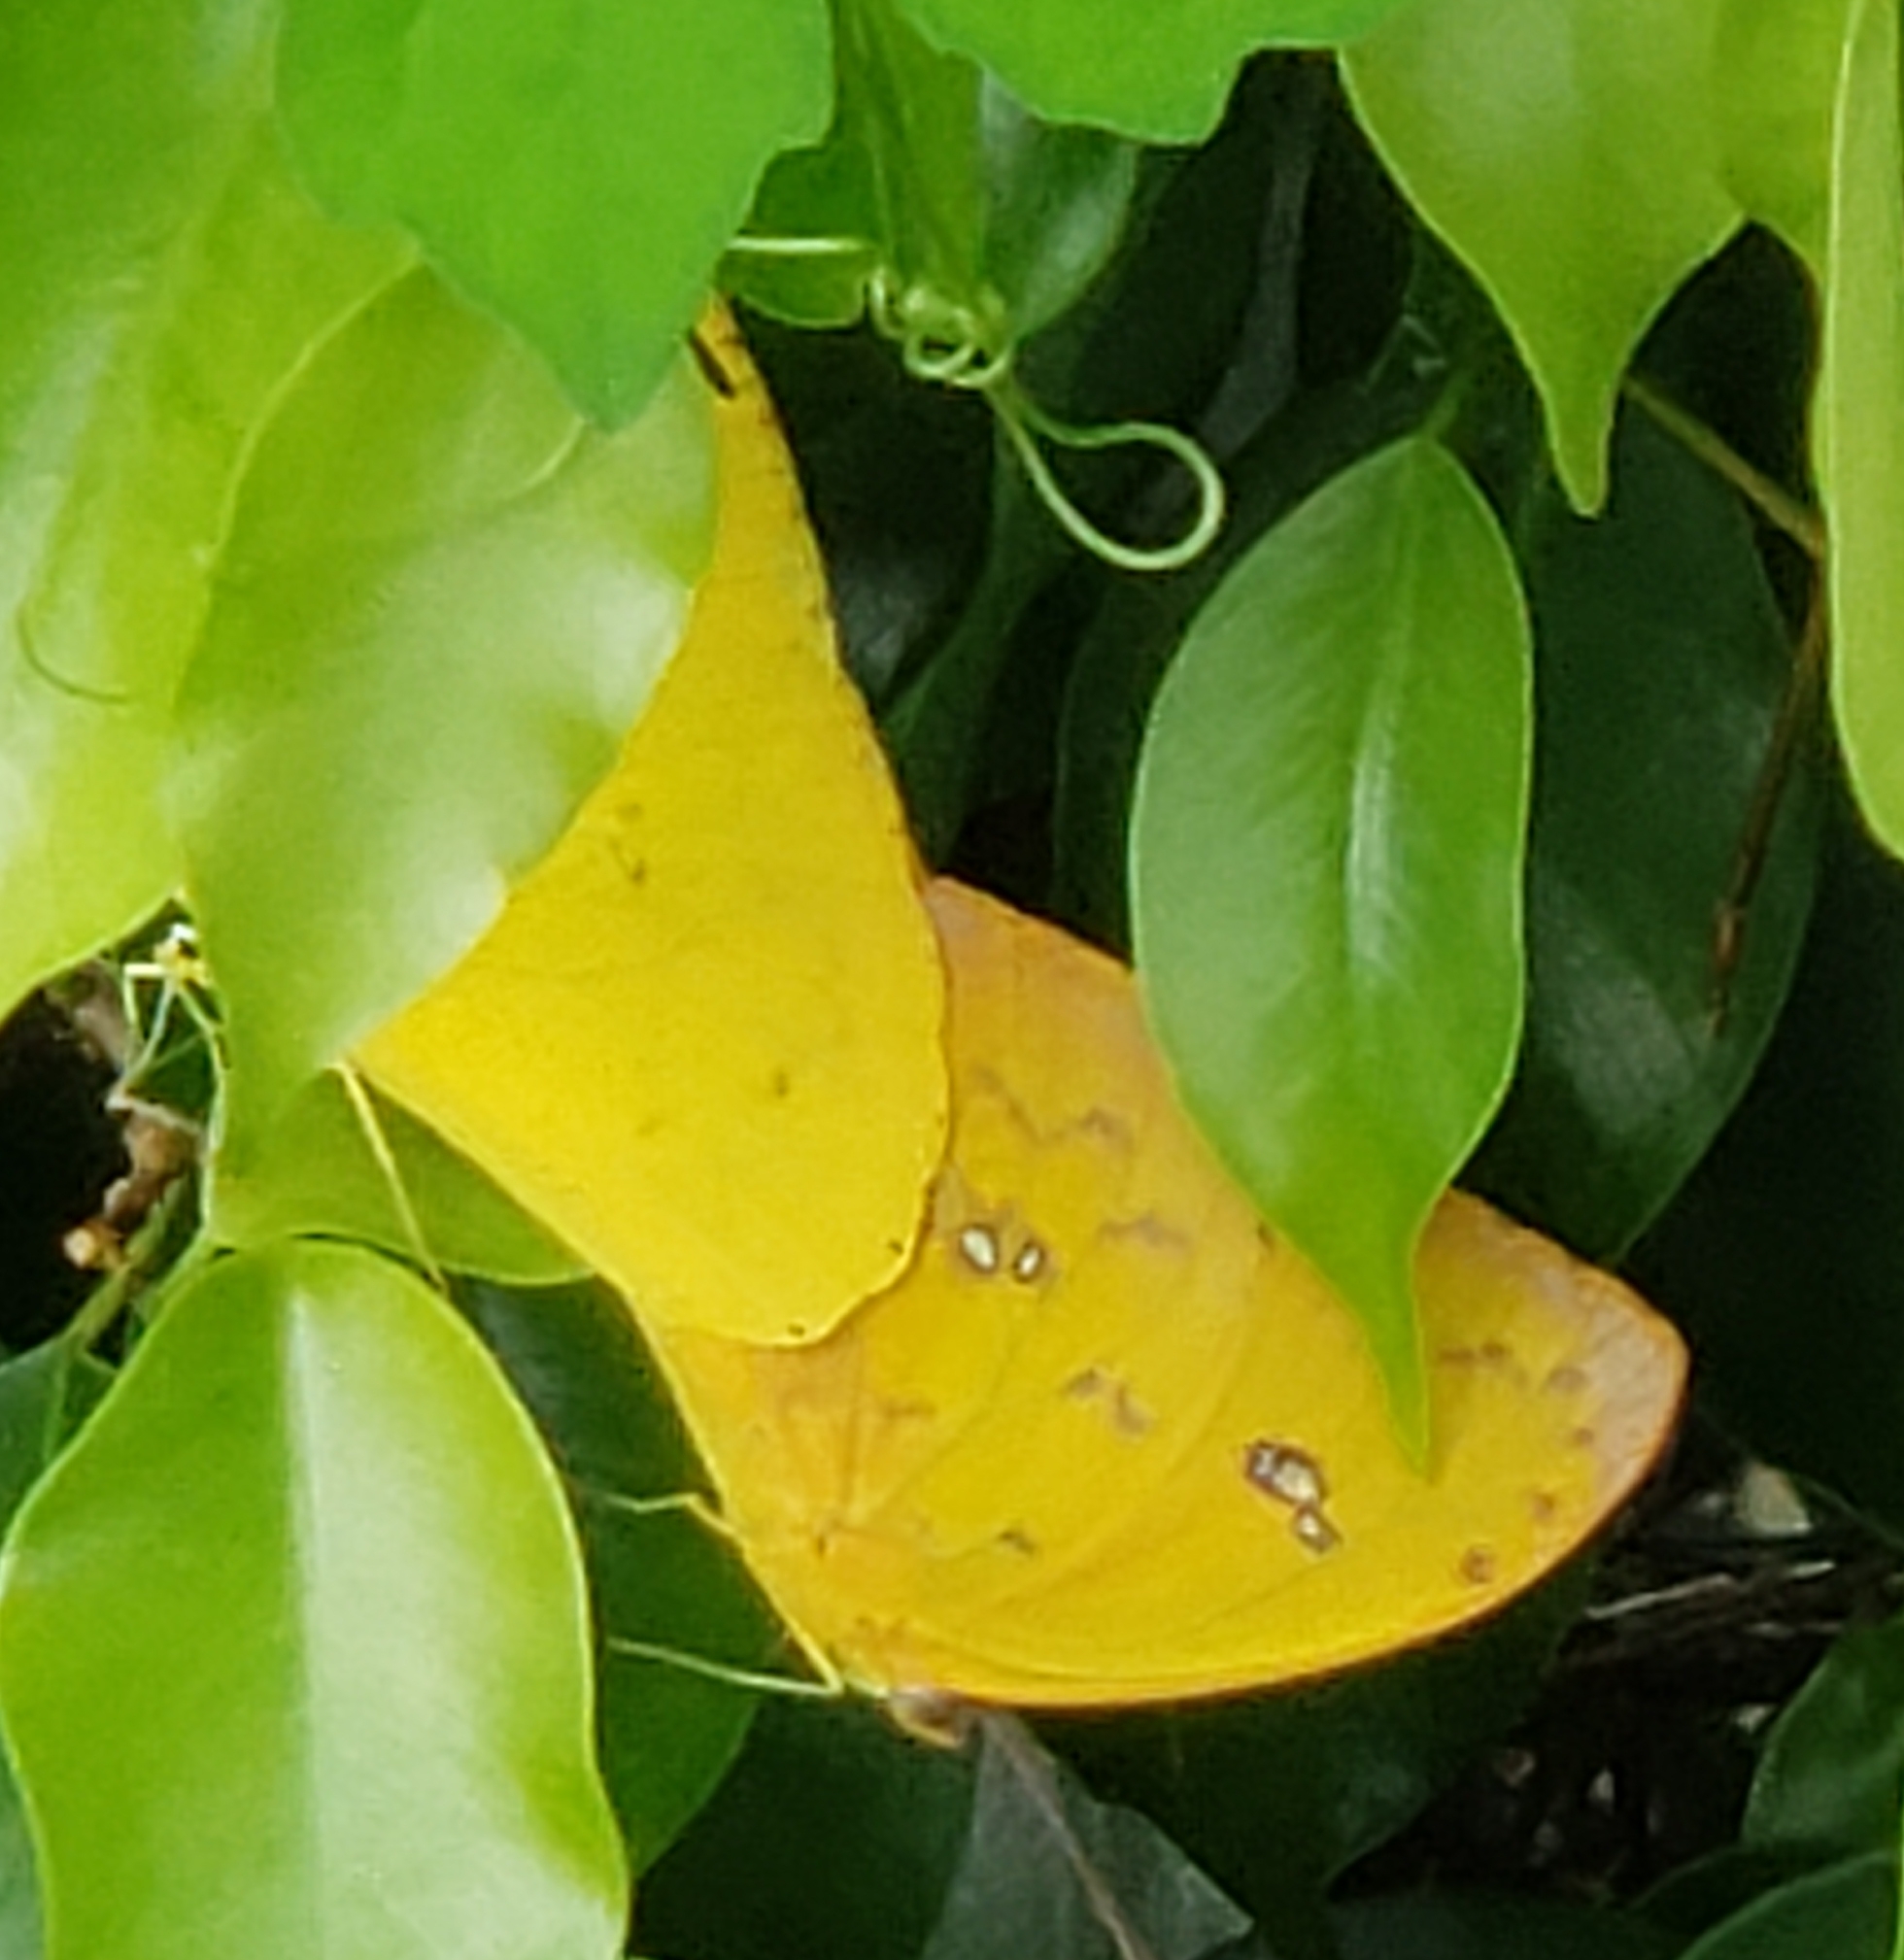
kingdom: Animalia
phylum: Arthropoda
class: Insecta
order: Lepidoptera
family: Pieridae
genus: Phoebis
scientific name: Phoebis philea
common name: Orange-barred giant sulphur
